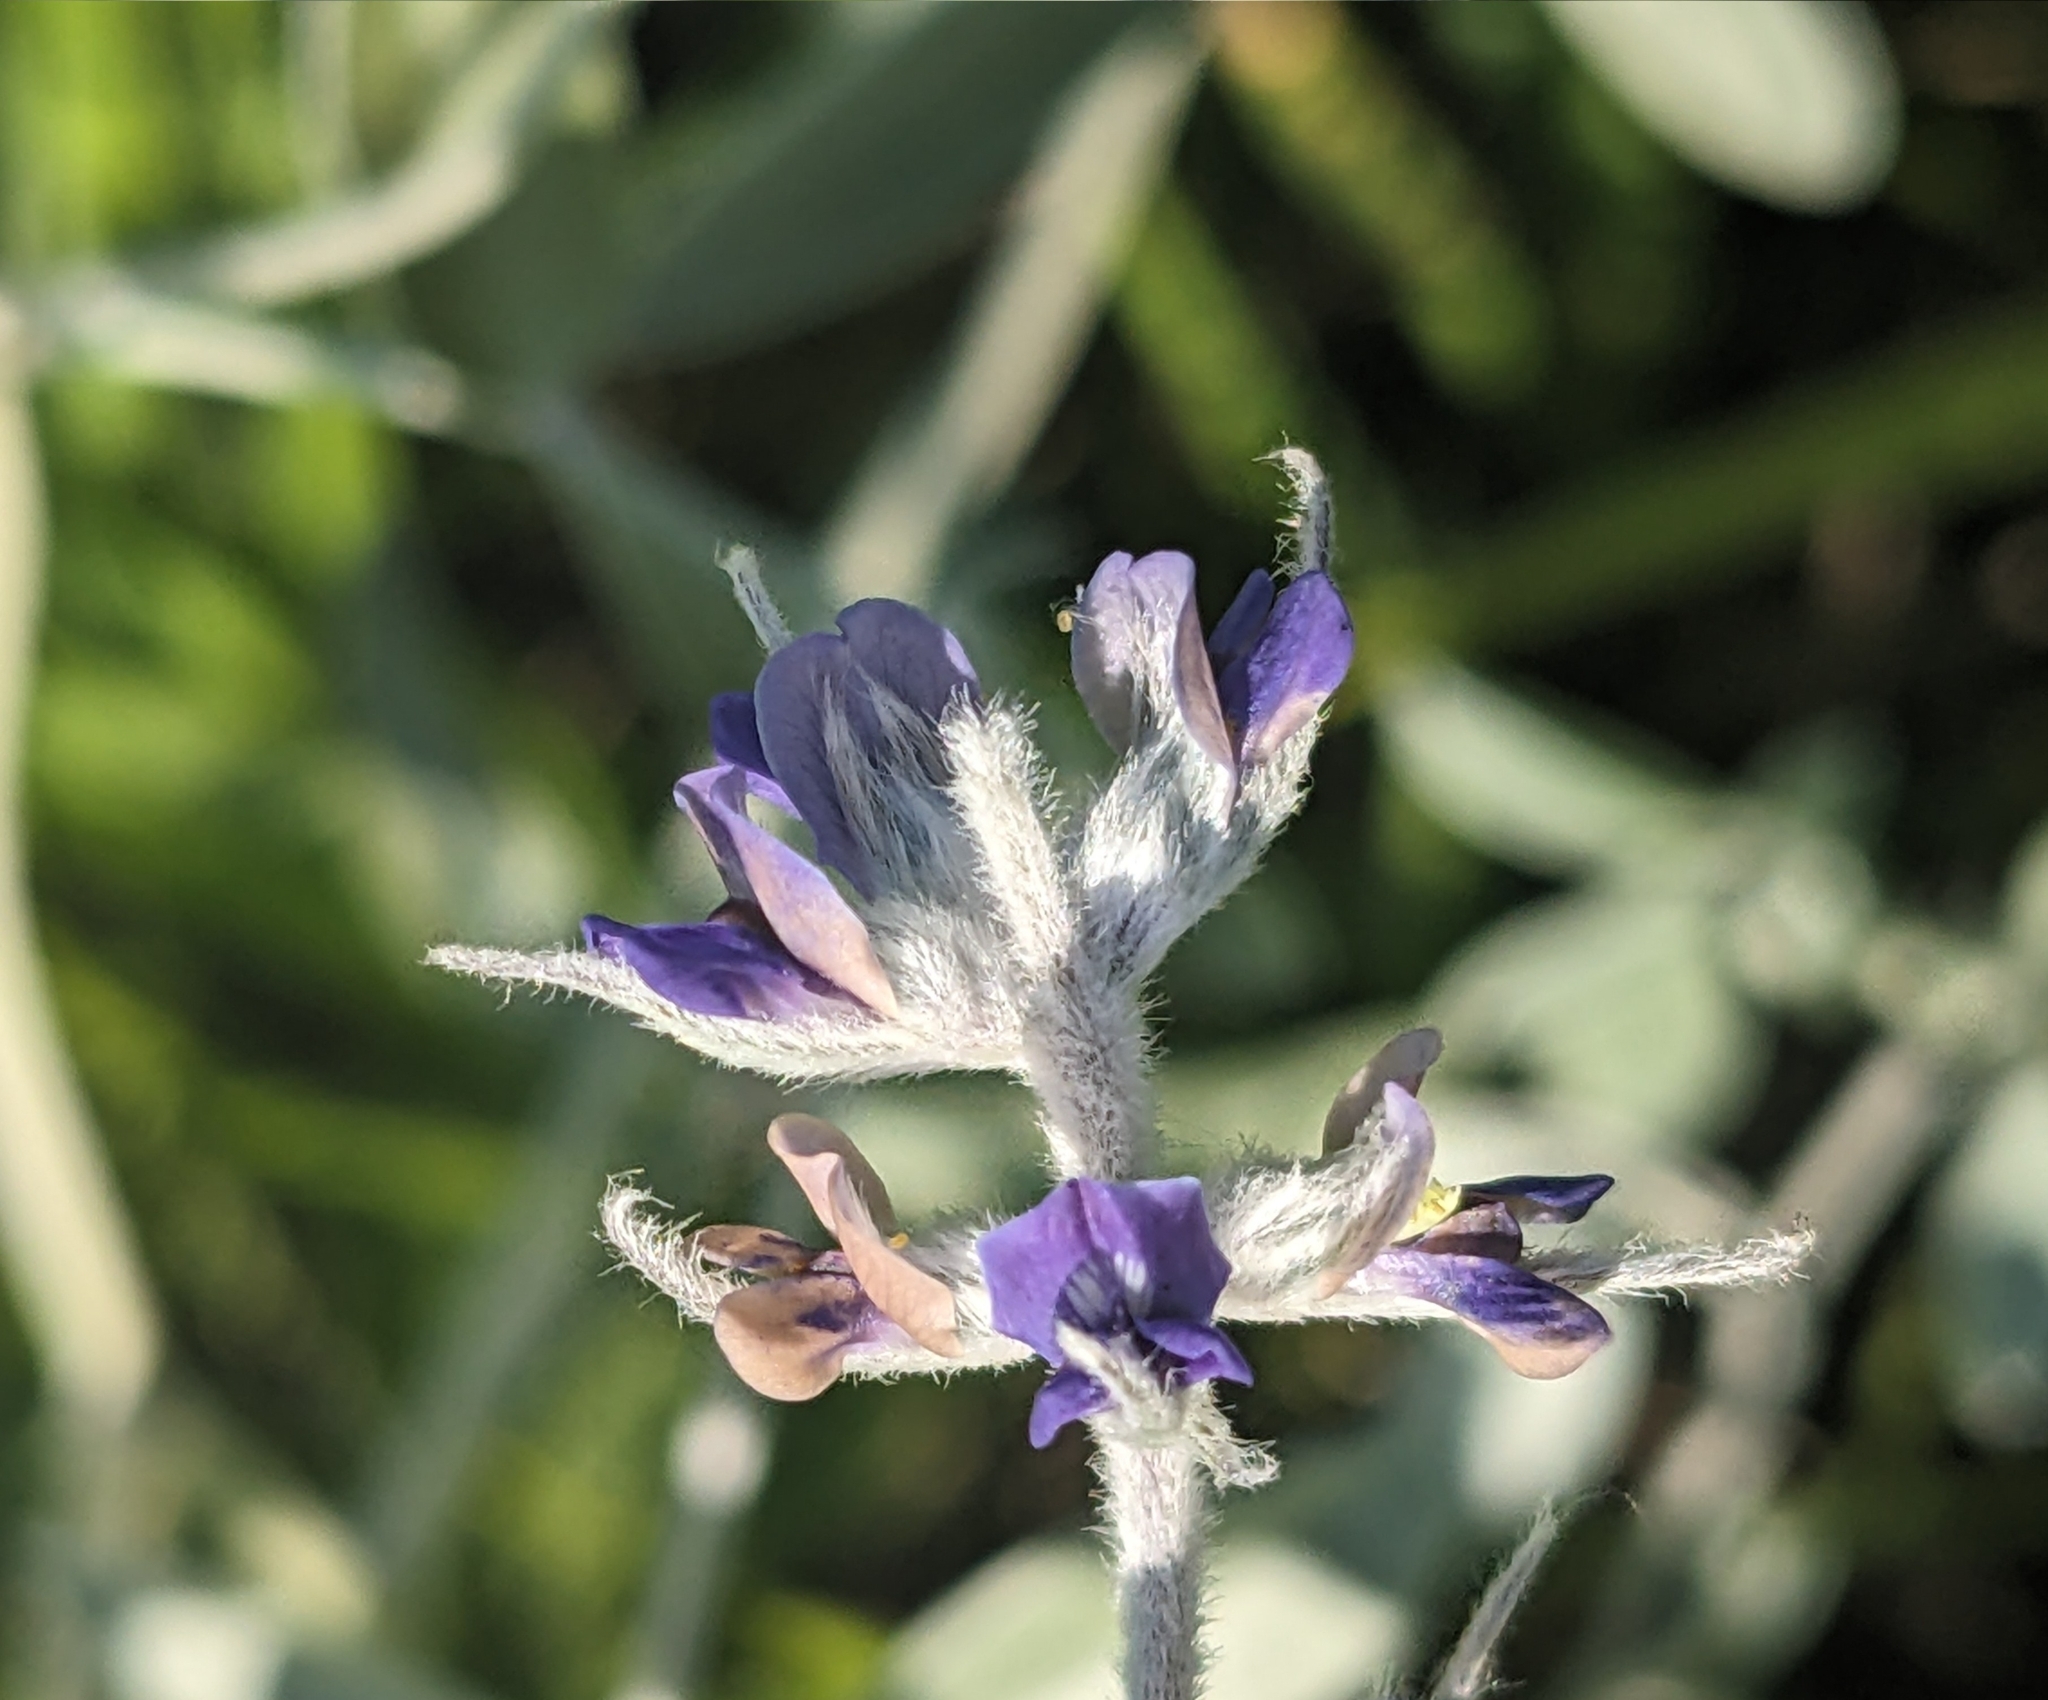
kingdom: Plantae
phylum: Tracheophyta
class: Magnoliopsida
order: Fabales
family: Fabaceae
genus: Pediomelum
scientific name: Pediomelum argophyllum
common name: Silver-leaved indian breadroot
